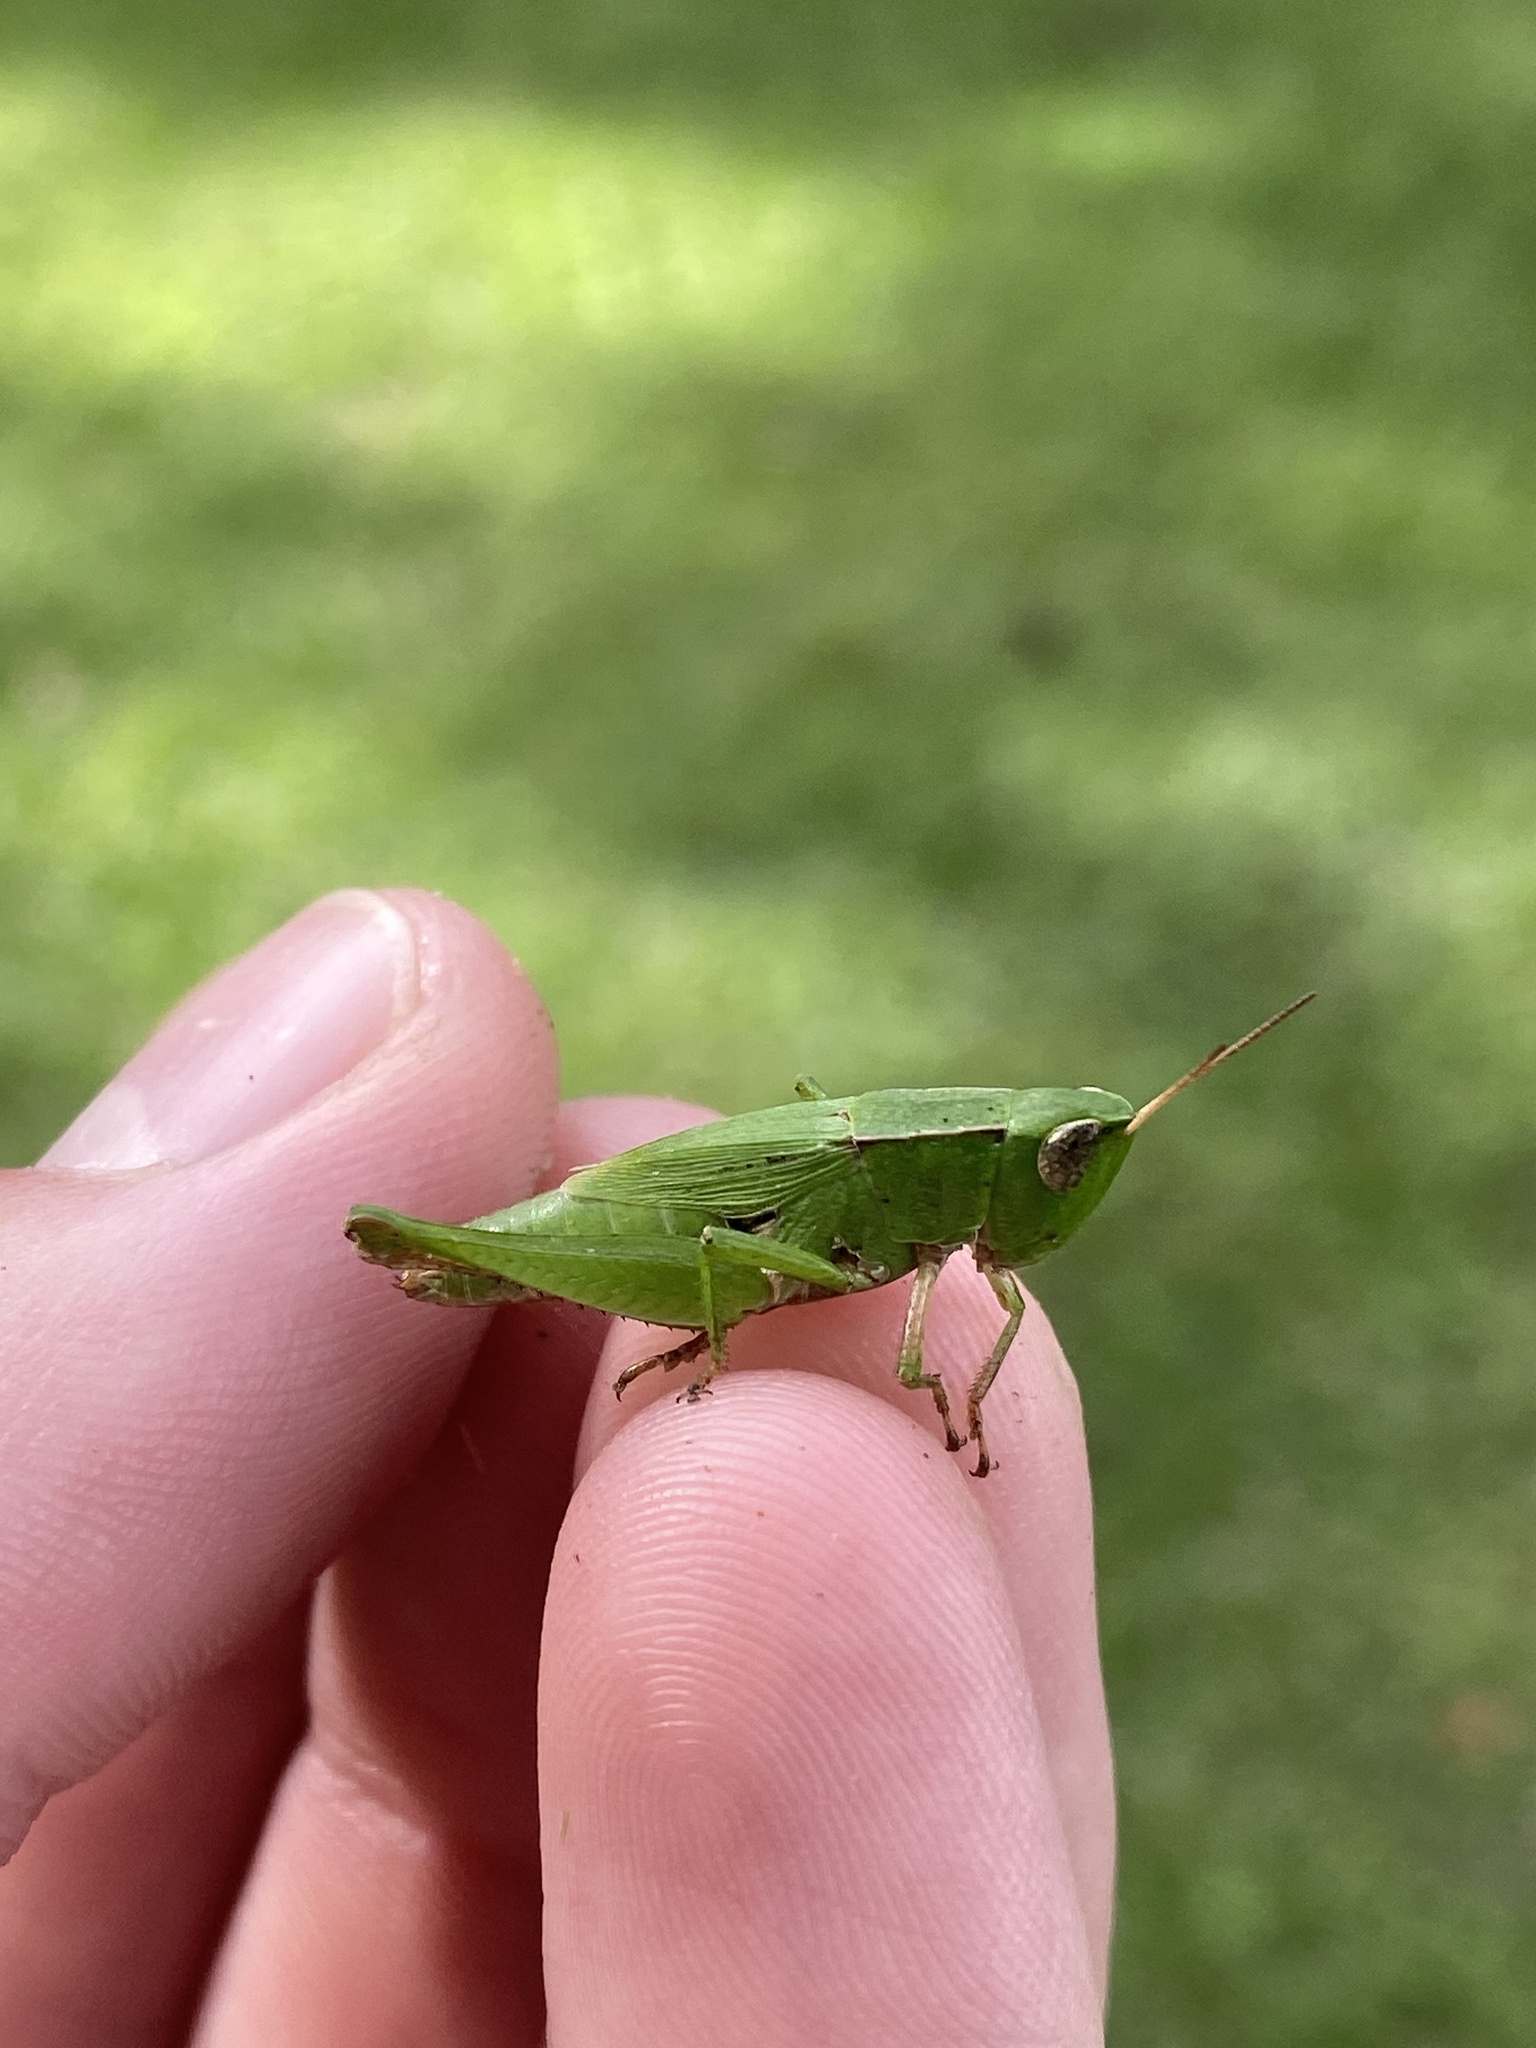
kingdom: Animalia
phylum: Arthropoda
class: Insecta
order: Orthoptera
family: Acrididae
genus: Dichromorpha
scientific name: Dichromorpha viridis
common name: Short-winged green grasshopper
